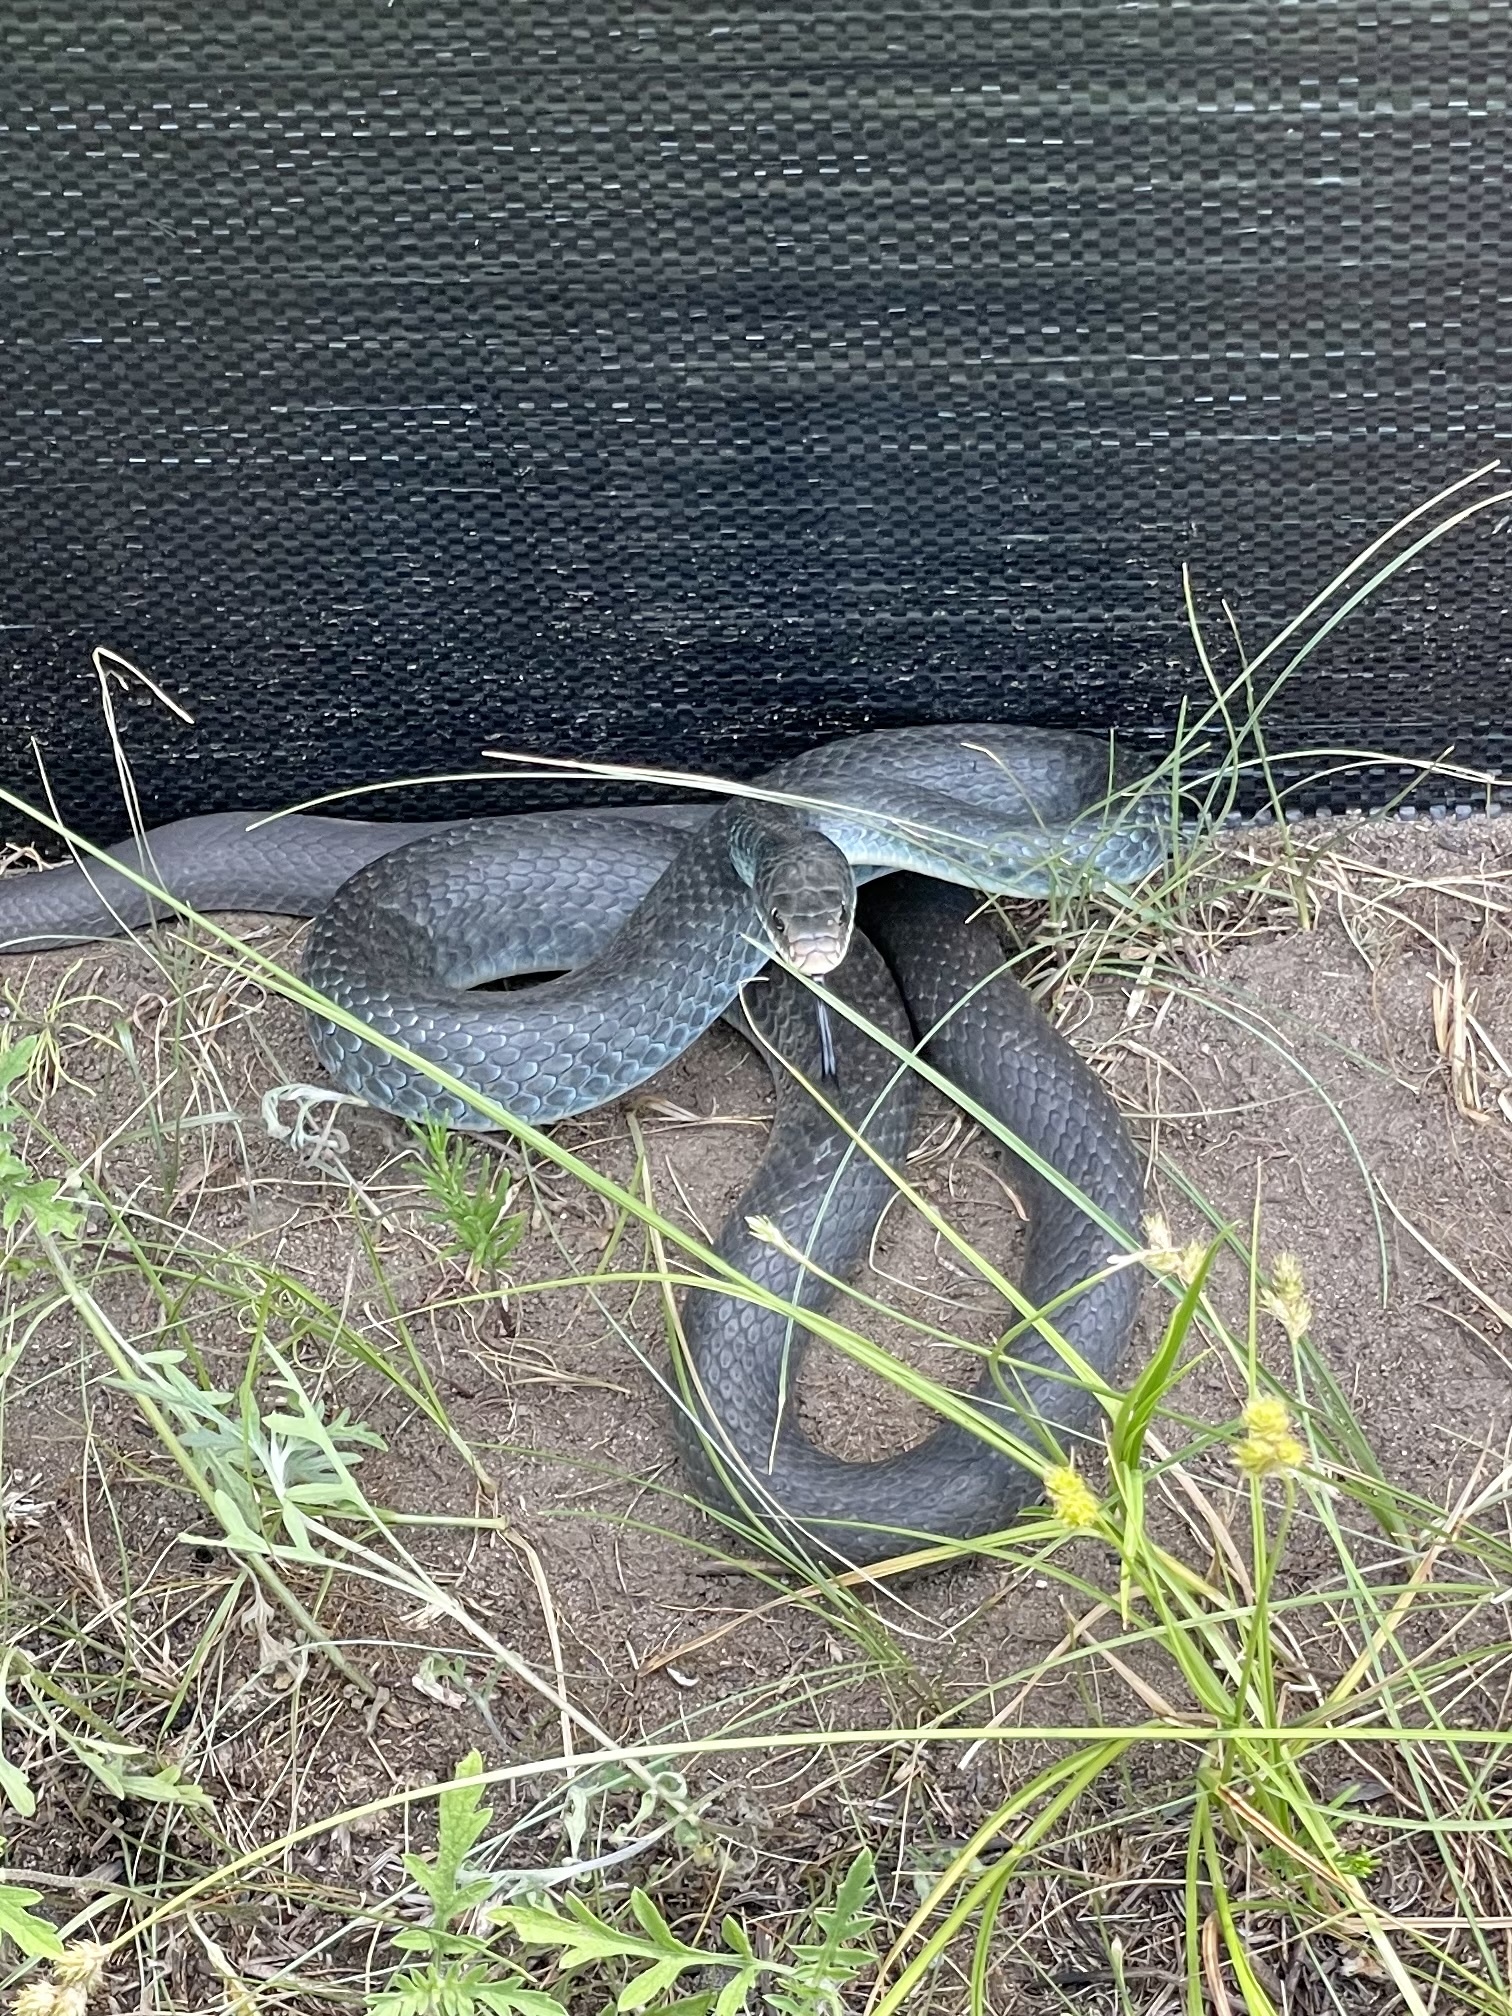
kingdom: Animalia
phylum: Chordata
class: Squamata
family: Colubridae
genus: Coluber
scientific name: Coluber constrictor
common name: Eastern racer
